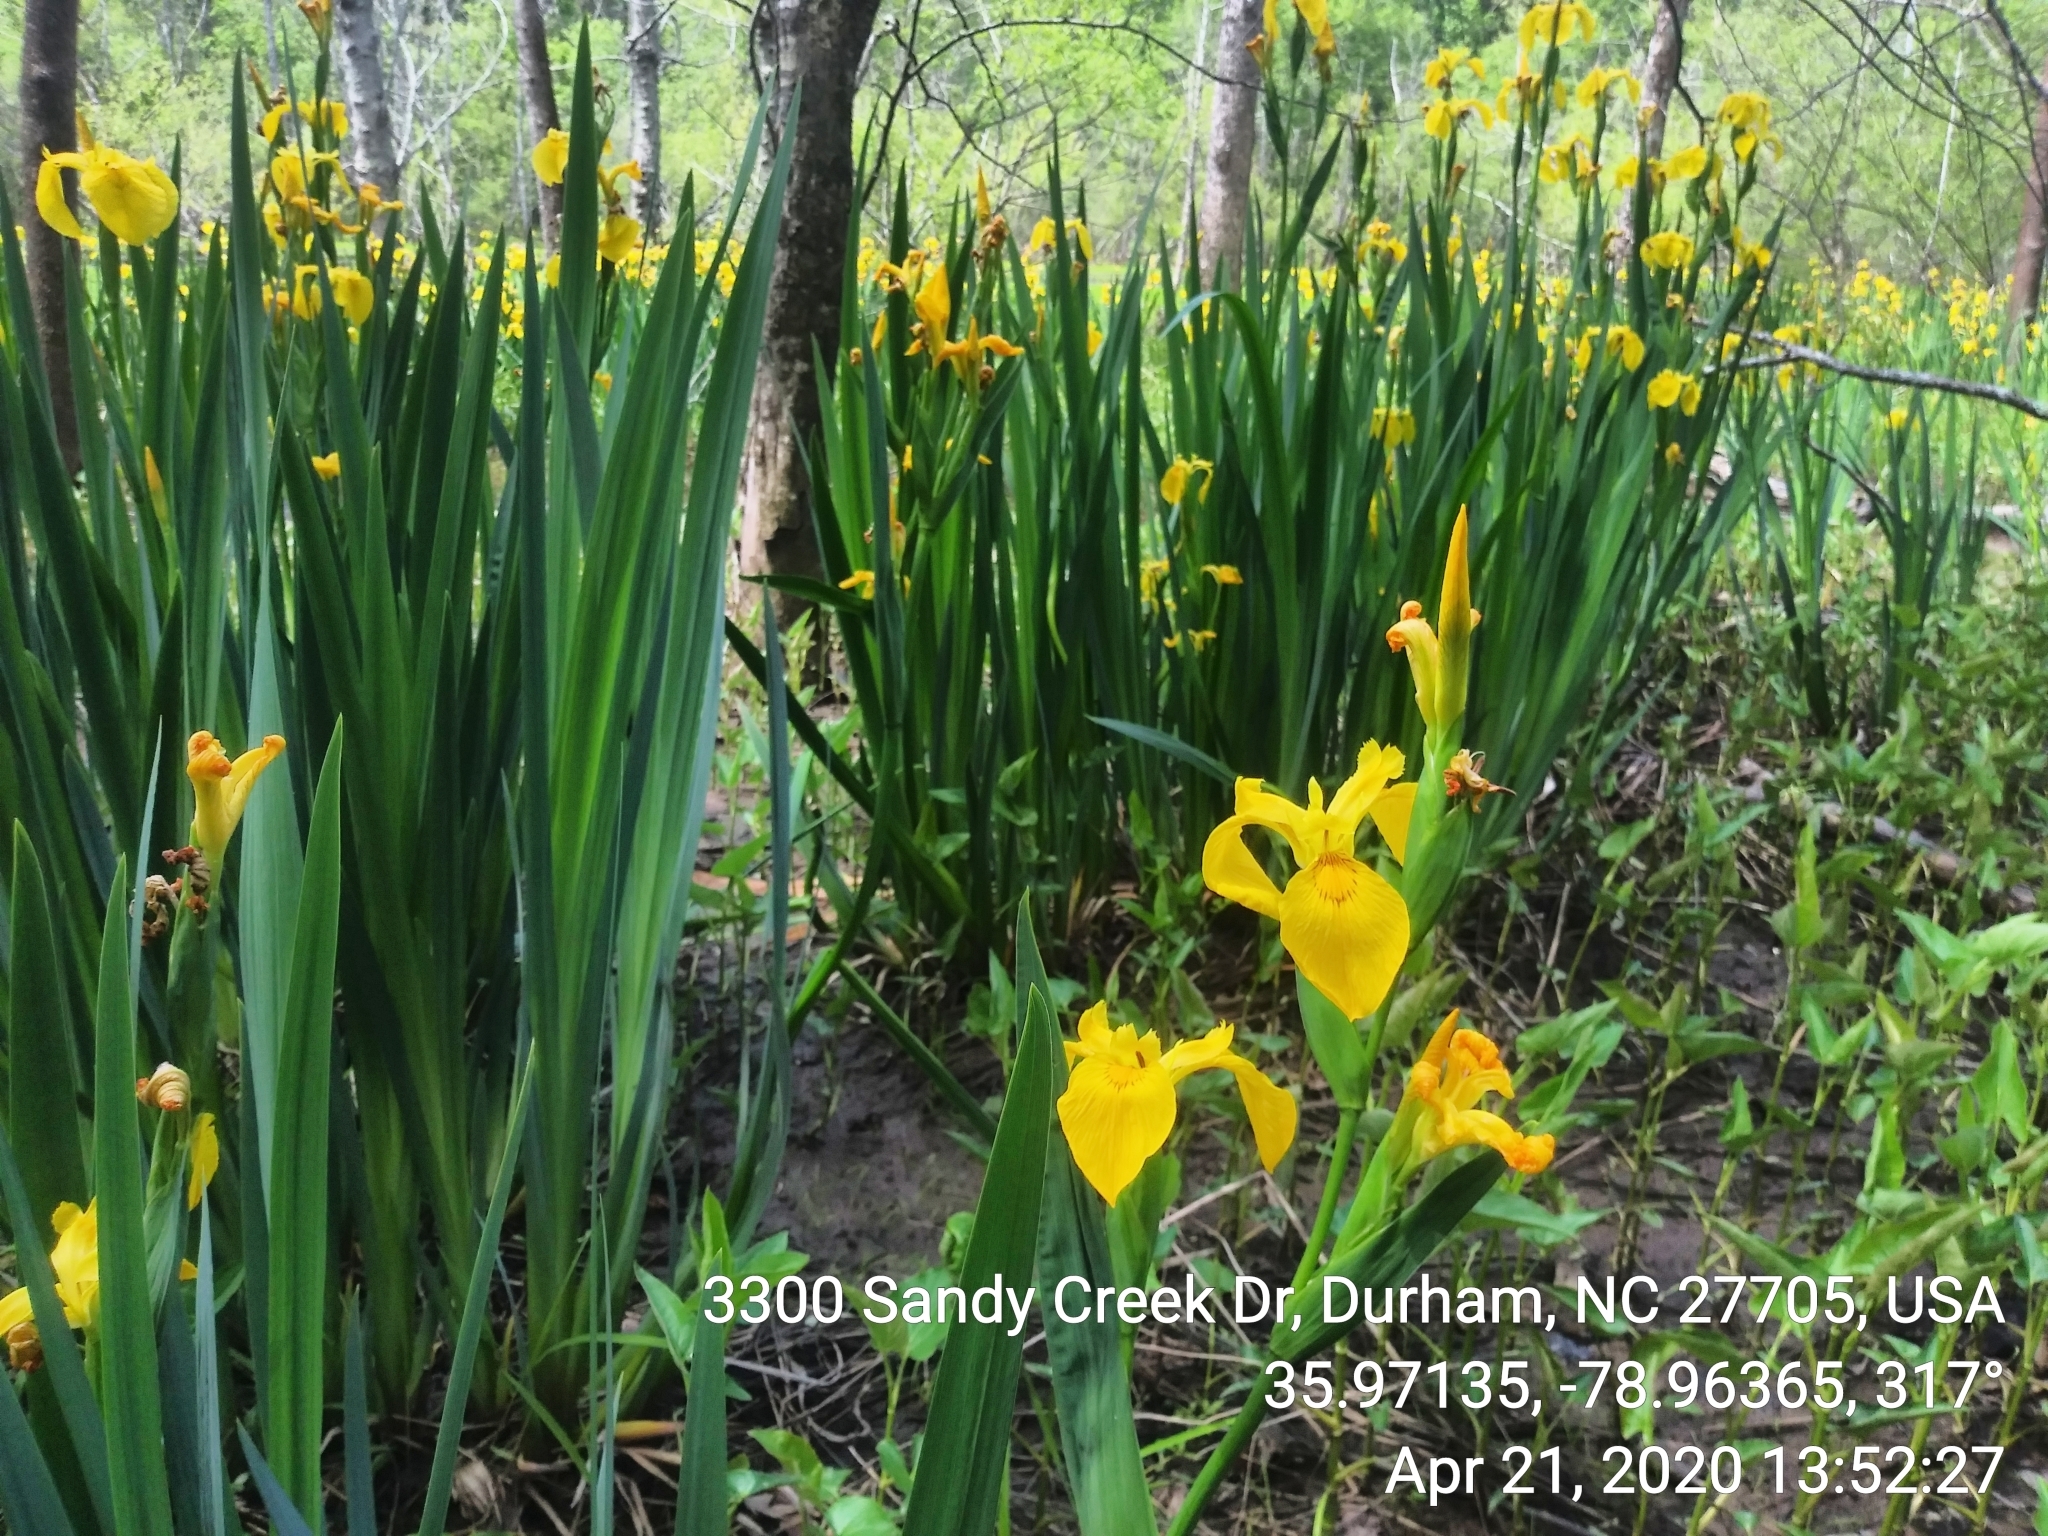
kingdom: Plantae
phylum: Tracheophyta
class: Liliopsida
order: Asparagales
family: Iridaceae
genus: Iris
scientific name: Iris pseudacorus
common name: Yellow flag
